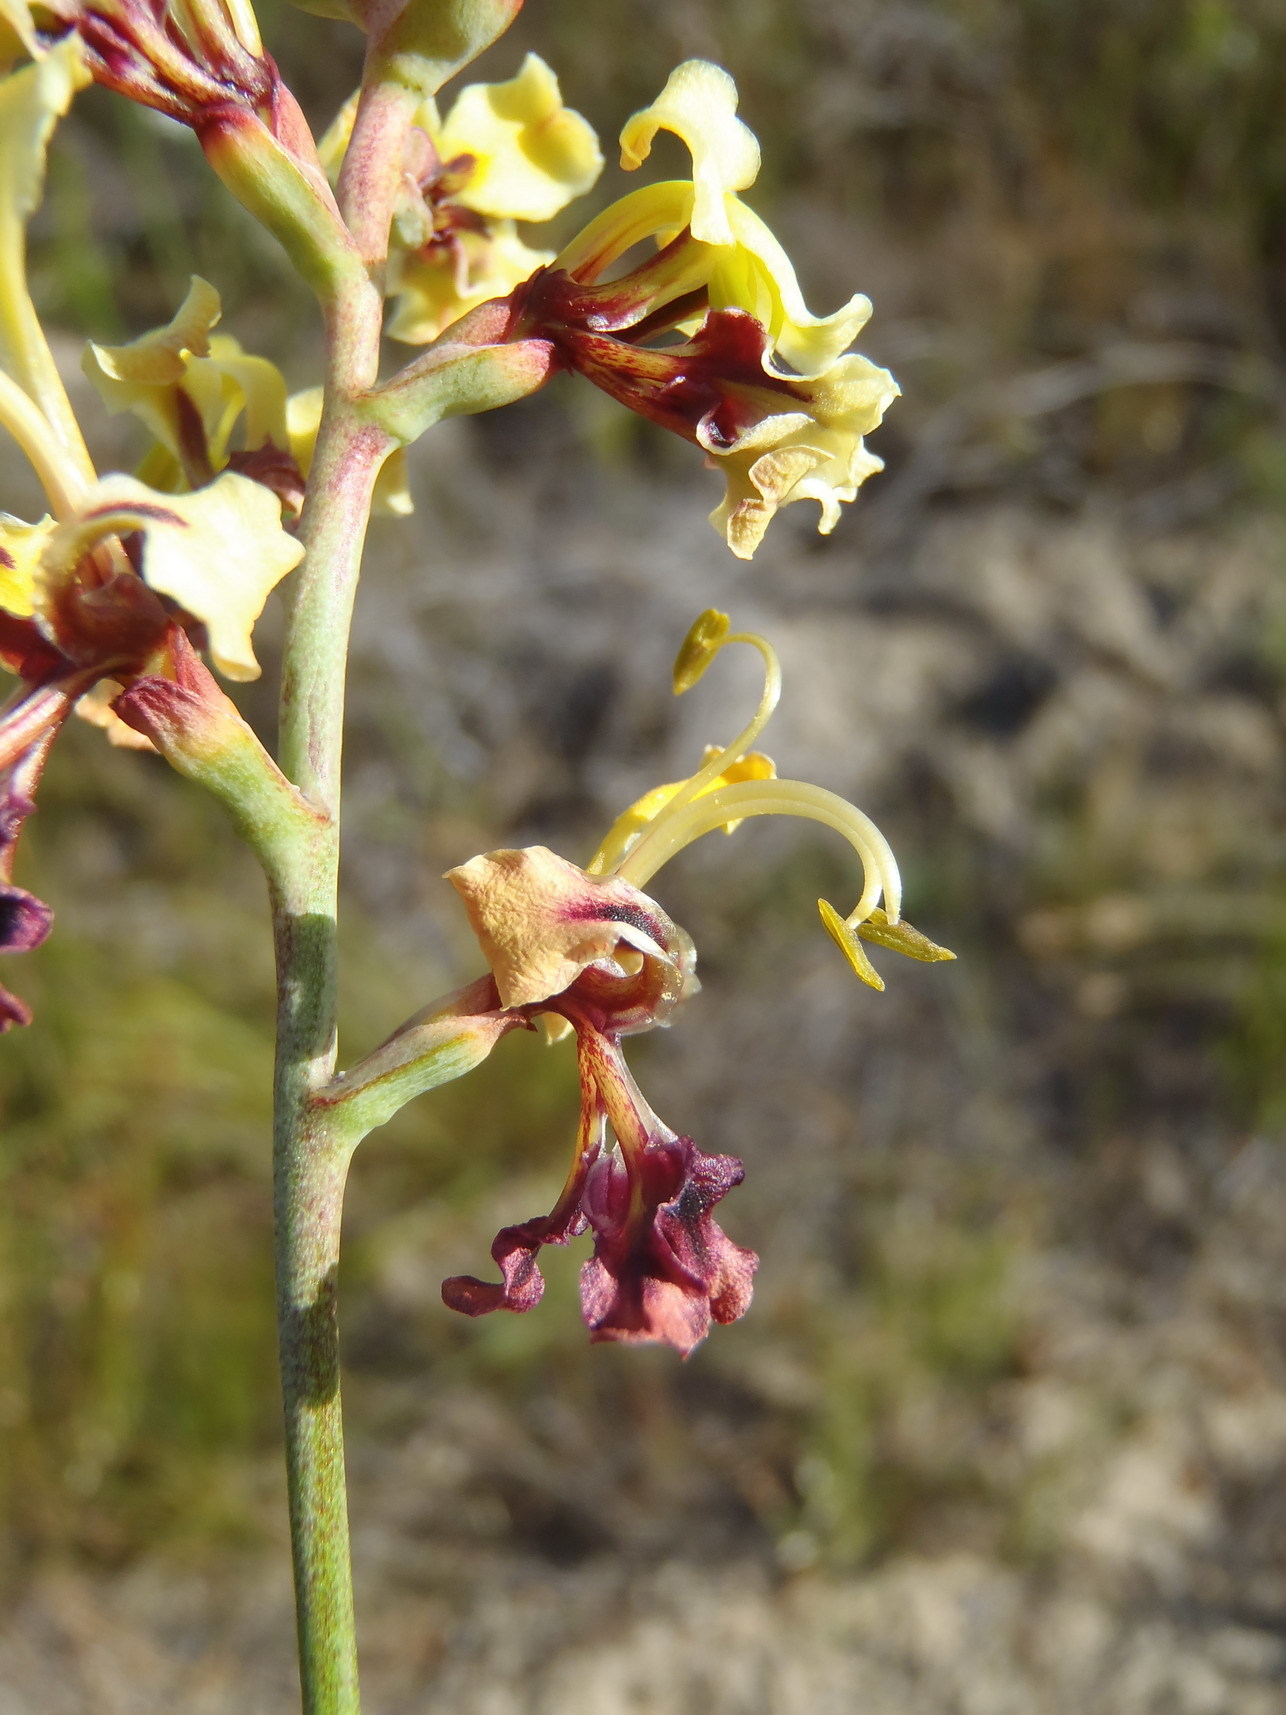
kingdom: Plantae
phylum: Tracheophyta
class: Liliopsida
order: Asparagales
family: Iridaceae
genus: Tritoniopsis
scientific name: Tritoniopsis parviflora
